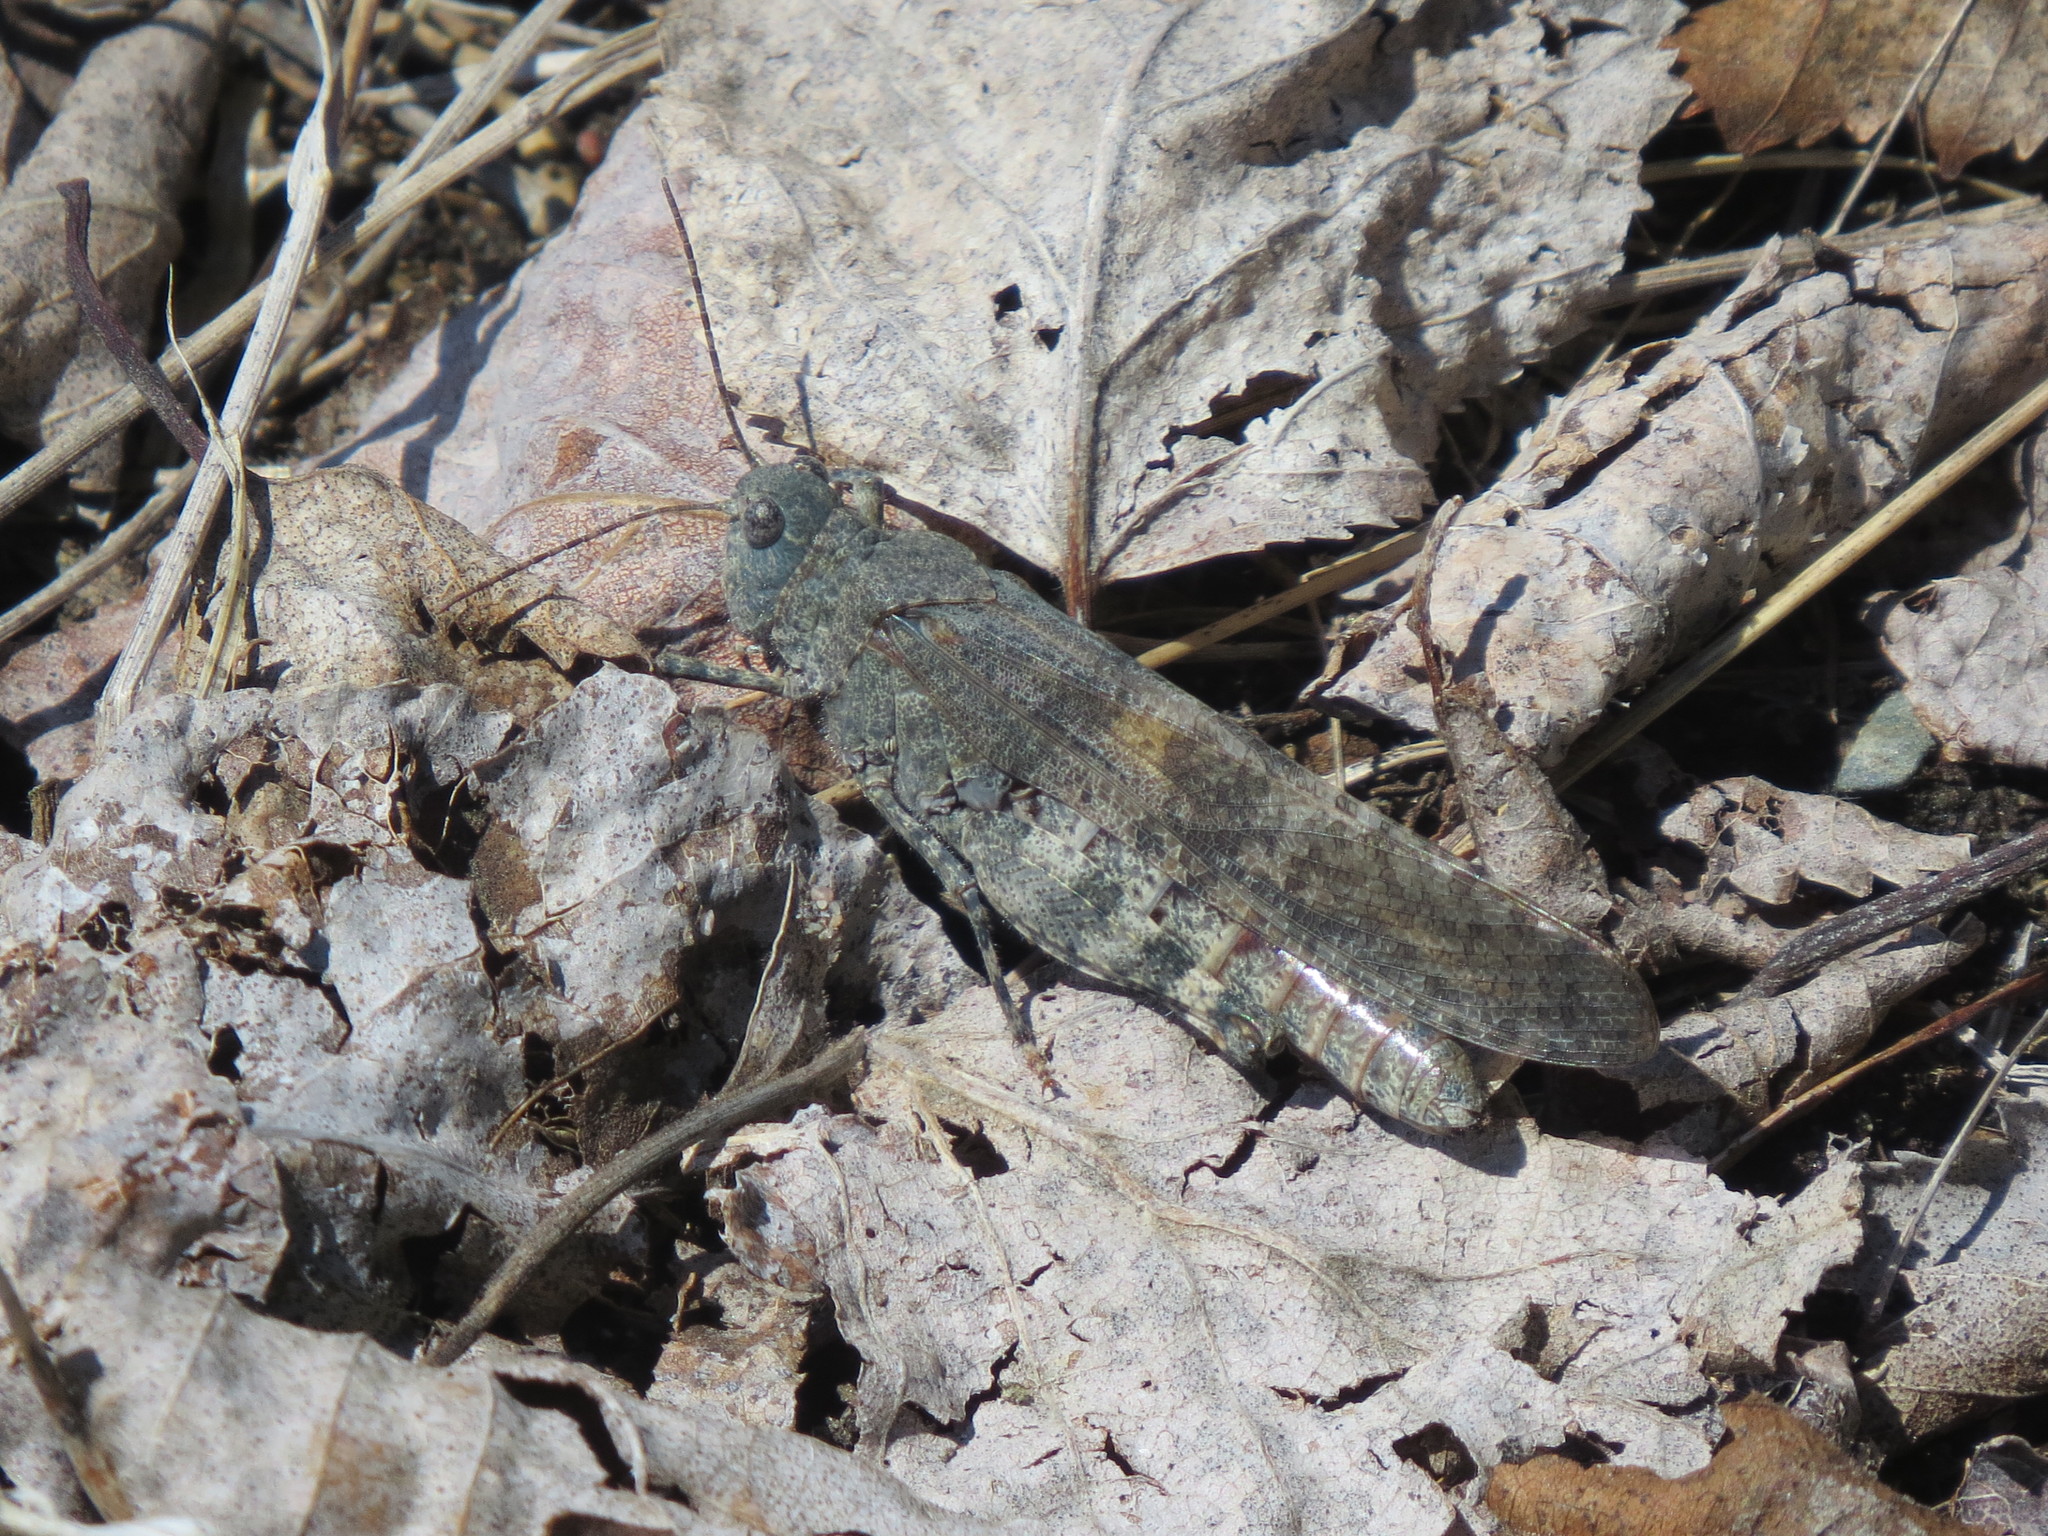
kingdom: Animalia
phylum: Arthropoda
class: Insecta
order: Orthoptera
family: Acrididae
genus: Trimerotropis
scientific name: Trimerotropis verruculata
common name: Crackling forest grasshopper
